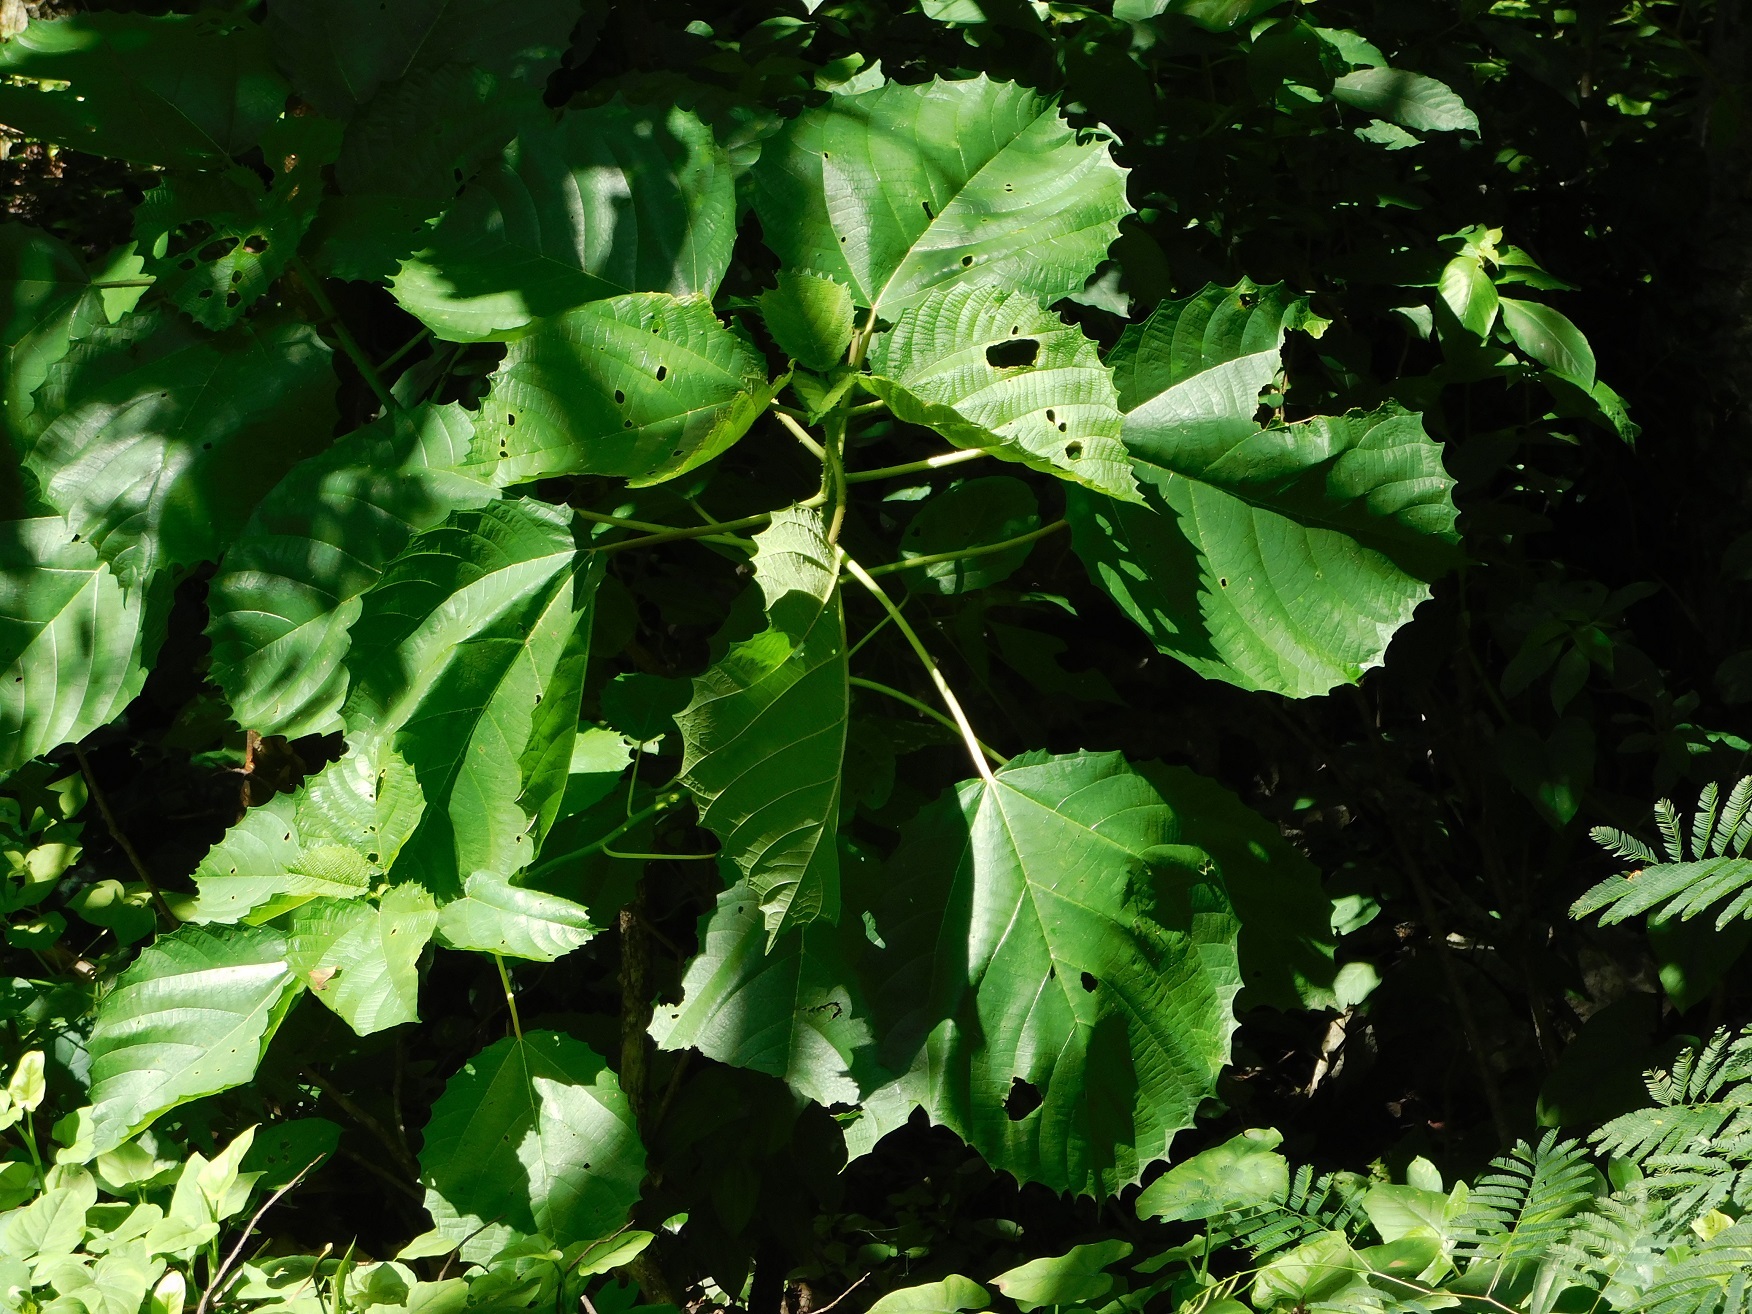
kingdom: Plantae
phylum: Tracheophyta
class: Magnoliopsida
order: Malpighiales
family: Euphorbiaceae
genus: Alchornea
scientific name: Alchornea latifolia
